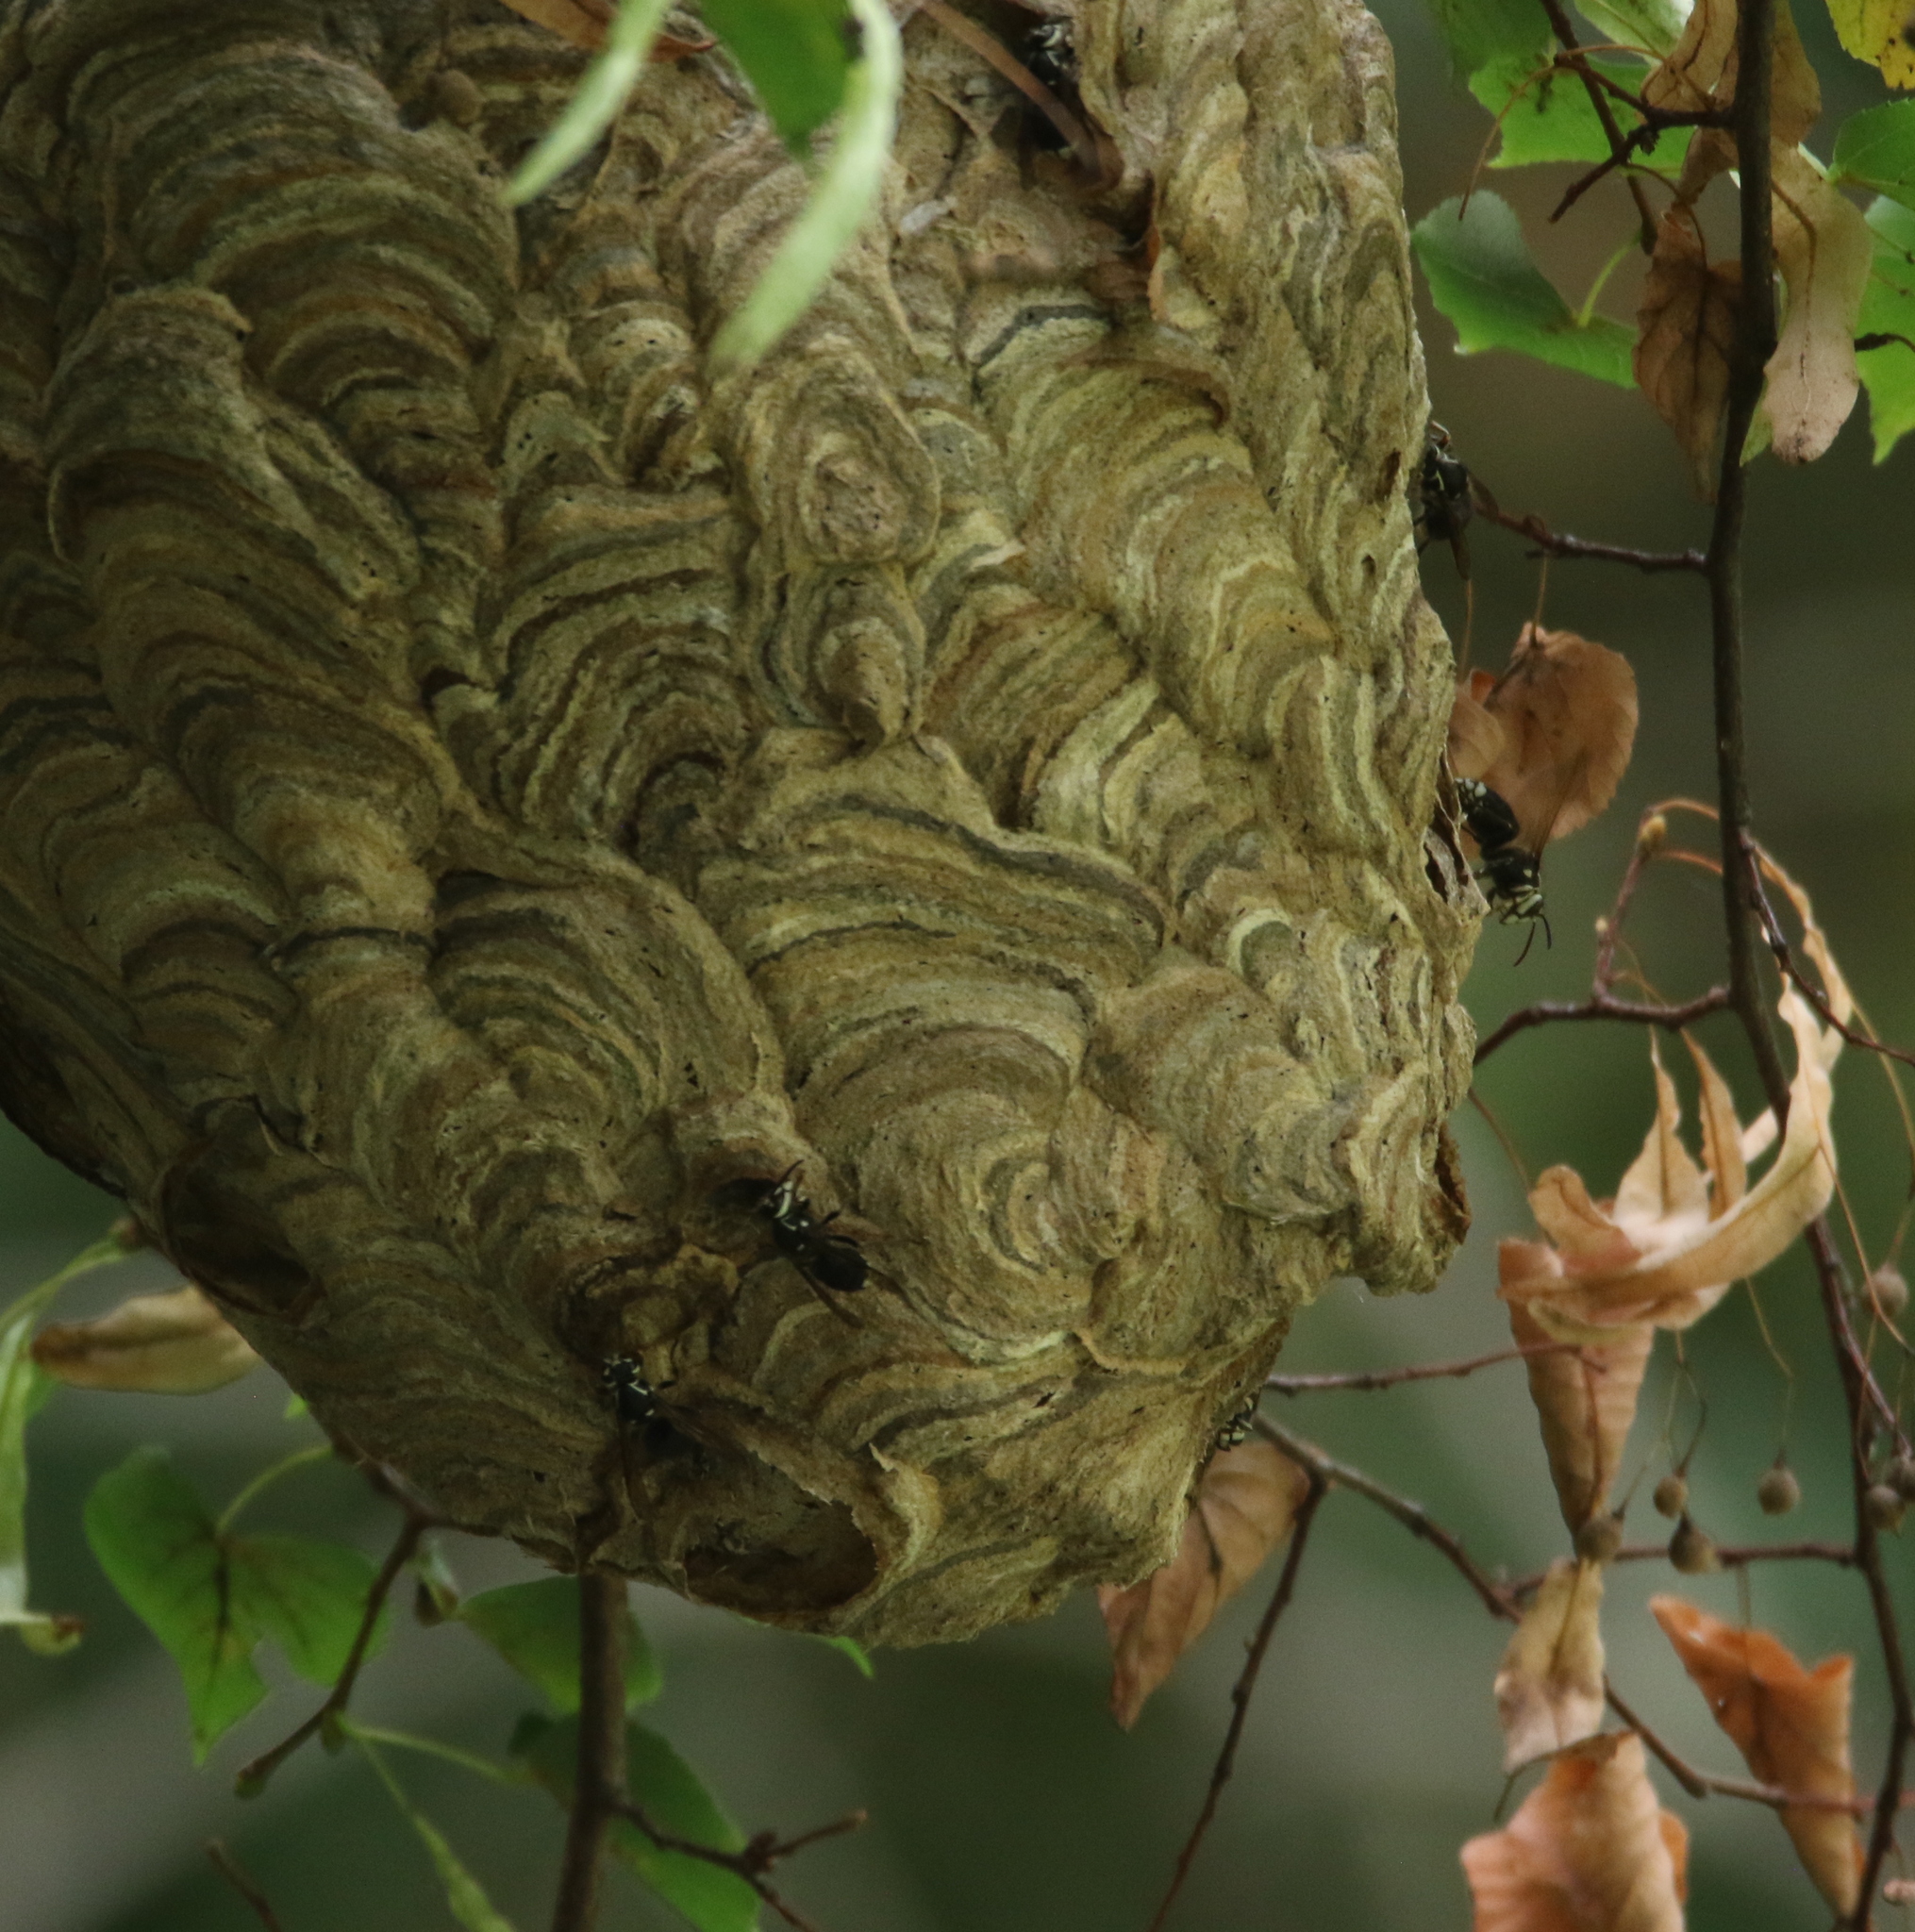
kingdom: Animalia
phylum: Arthropoda
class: Insecta
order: Hymenoptera
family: Vespidae
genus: Dolichovespula
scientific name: Dolichovespula maculata
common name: Bald-faced hornet
